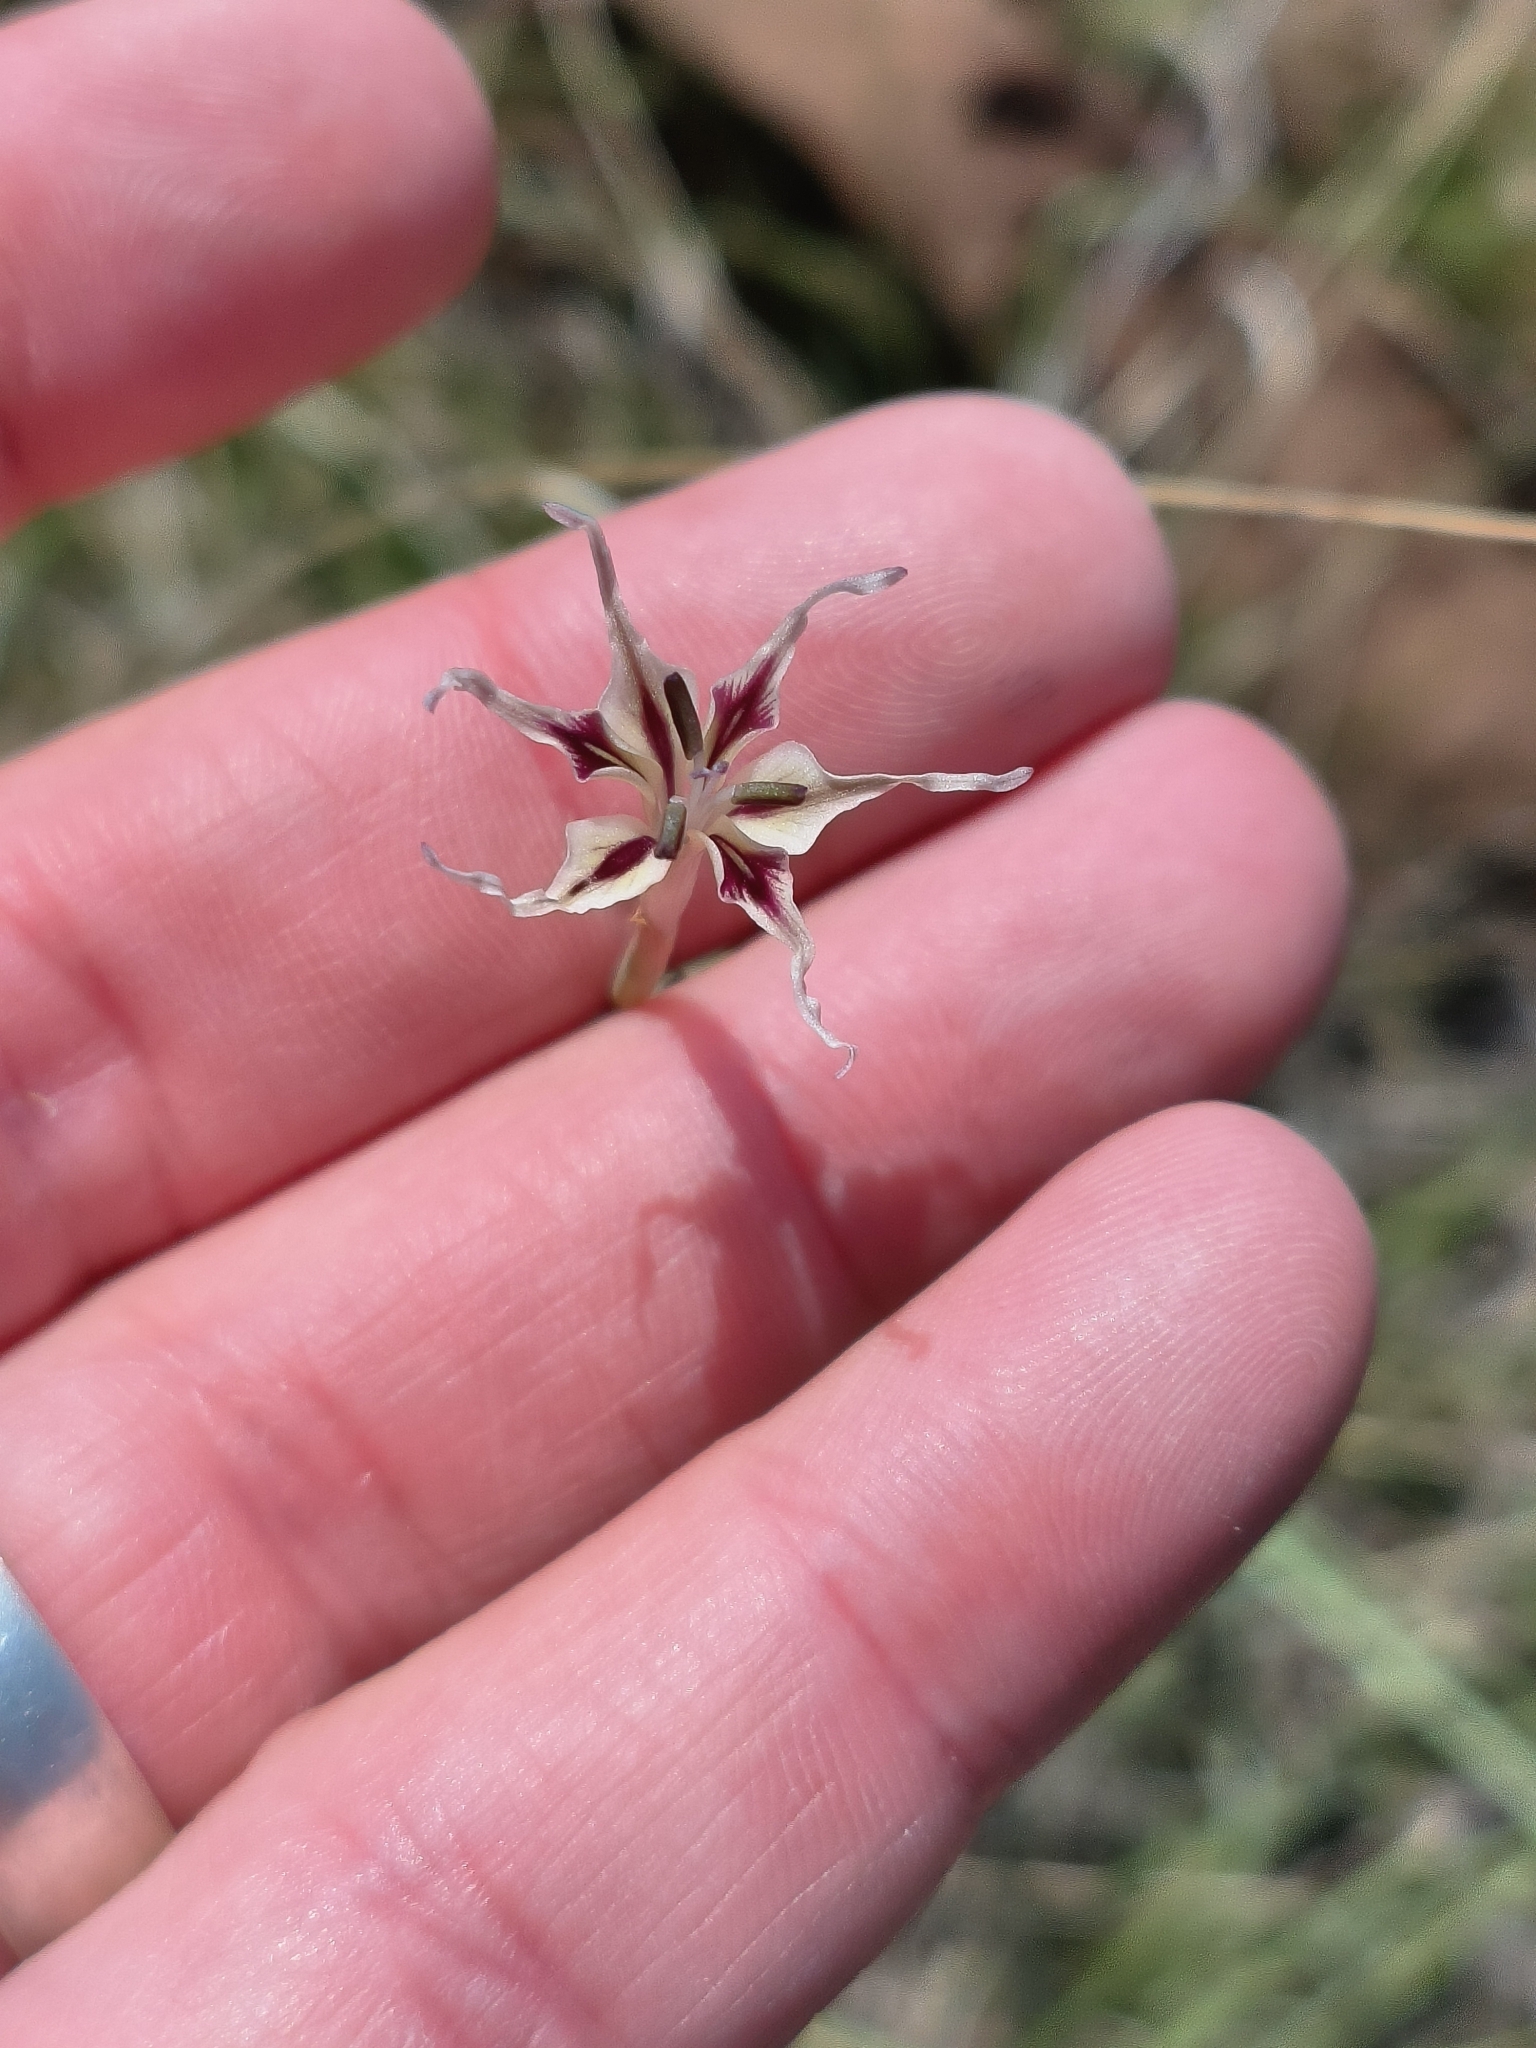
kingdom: Plantae
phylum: Tracheophyta
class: Liliopsida
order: Asparagales
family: Iridaceae
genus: Gladiolus
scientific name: Gladiolus permeabilis
